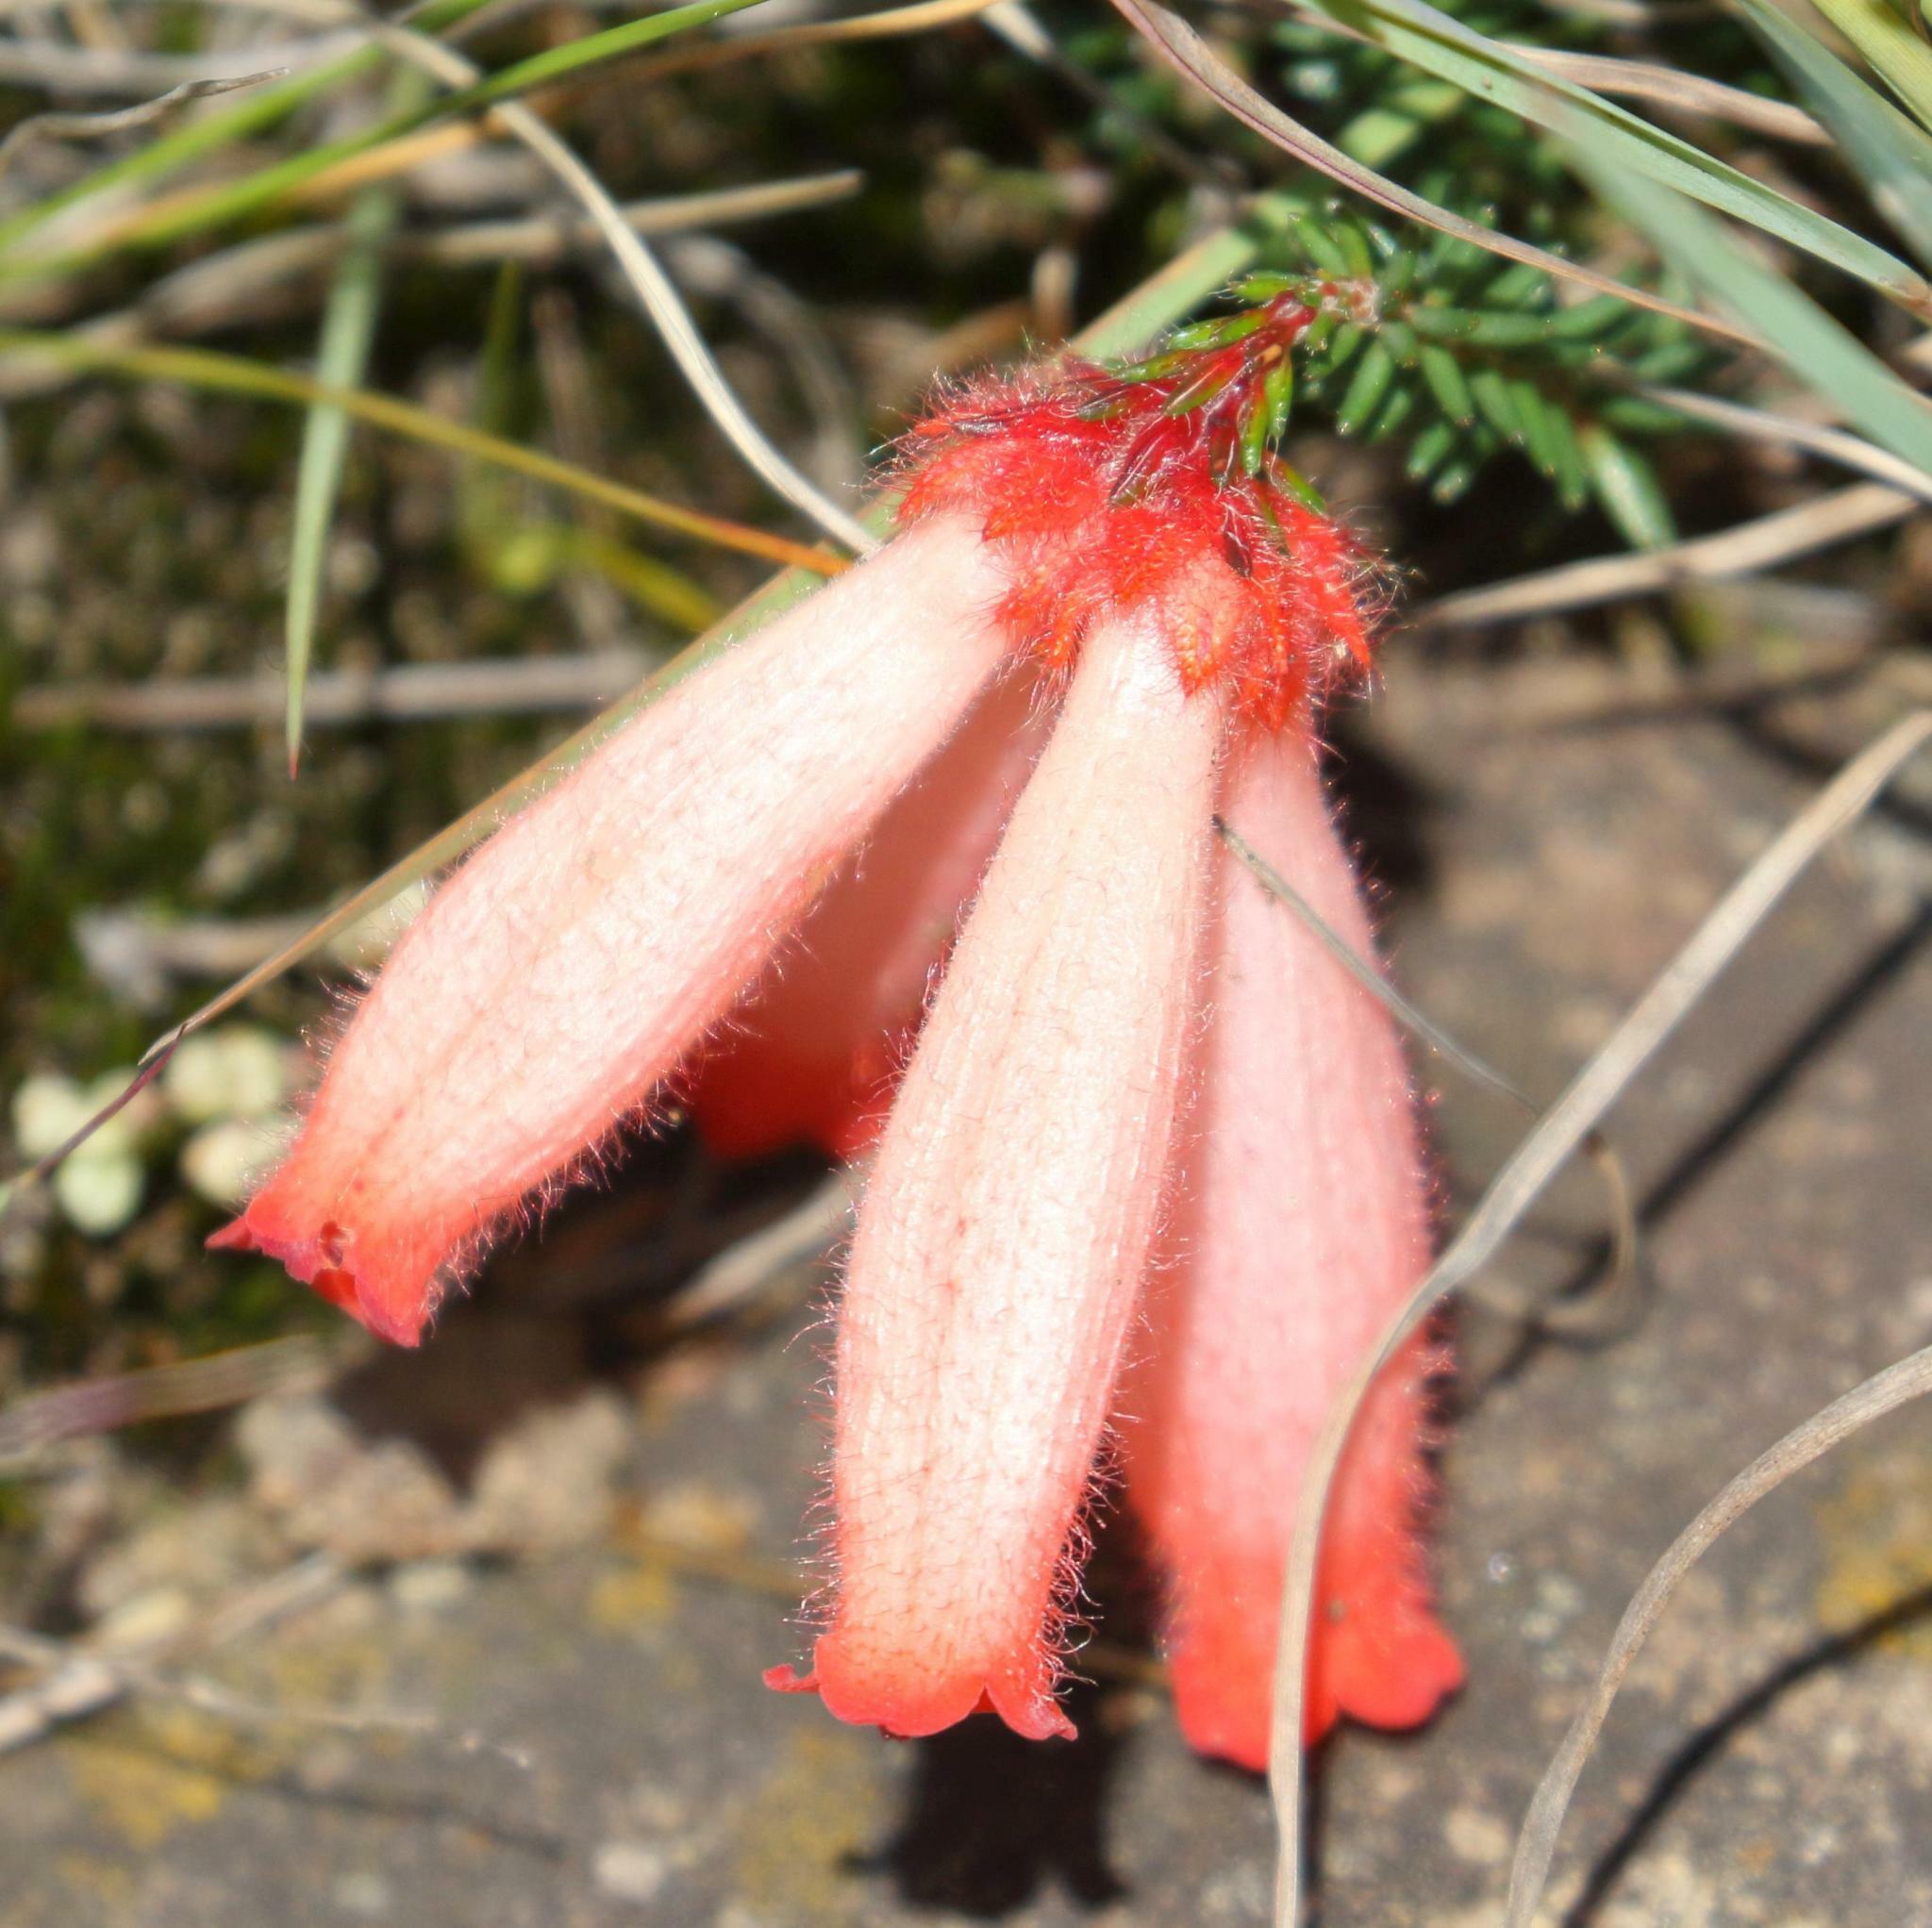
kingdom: Plantae
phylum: Tracheophyta
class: Magnoliopsida
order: Ericales
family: Ericaceae
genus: Erica
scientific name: Erica cerinthoides
